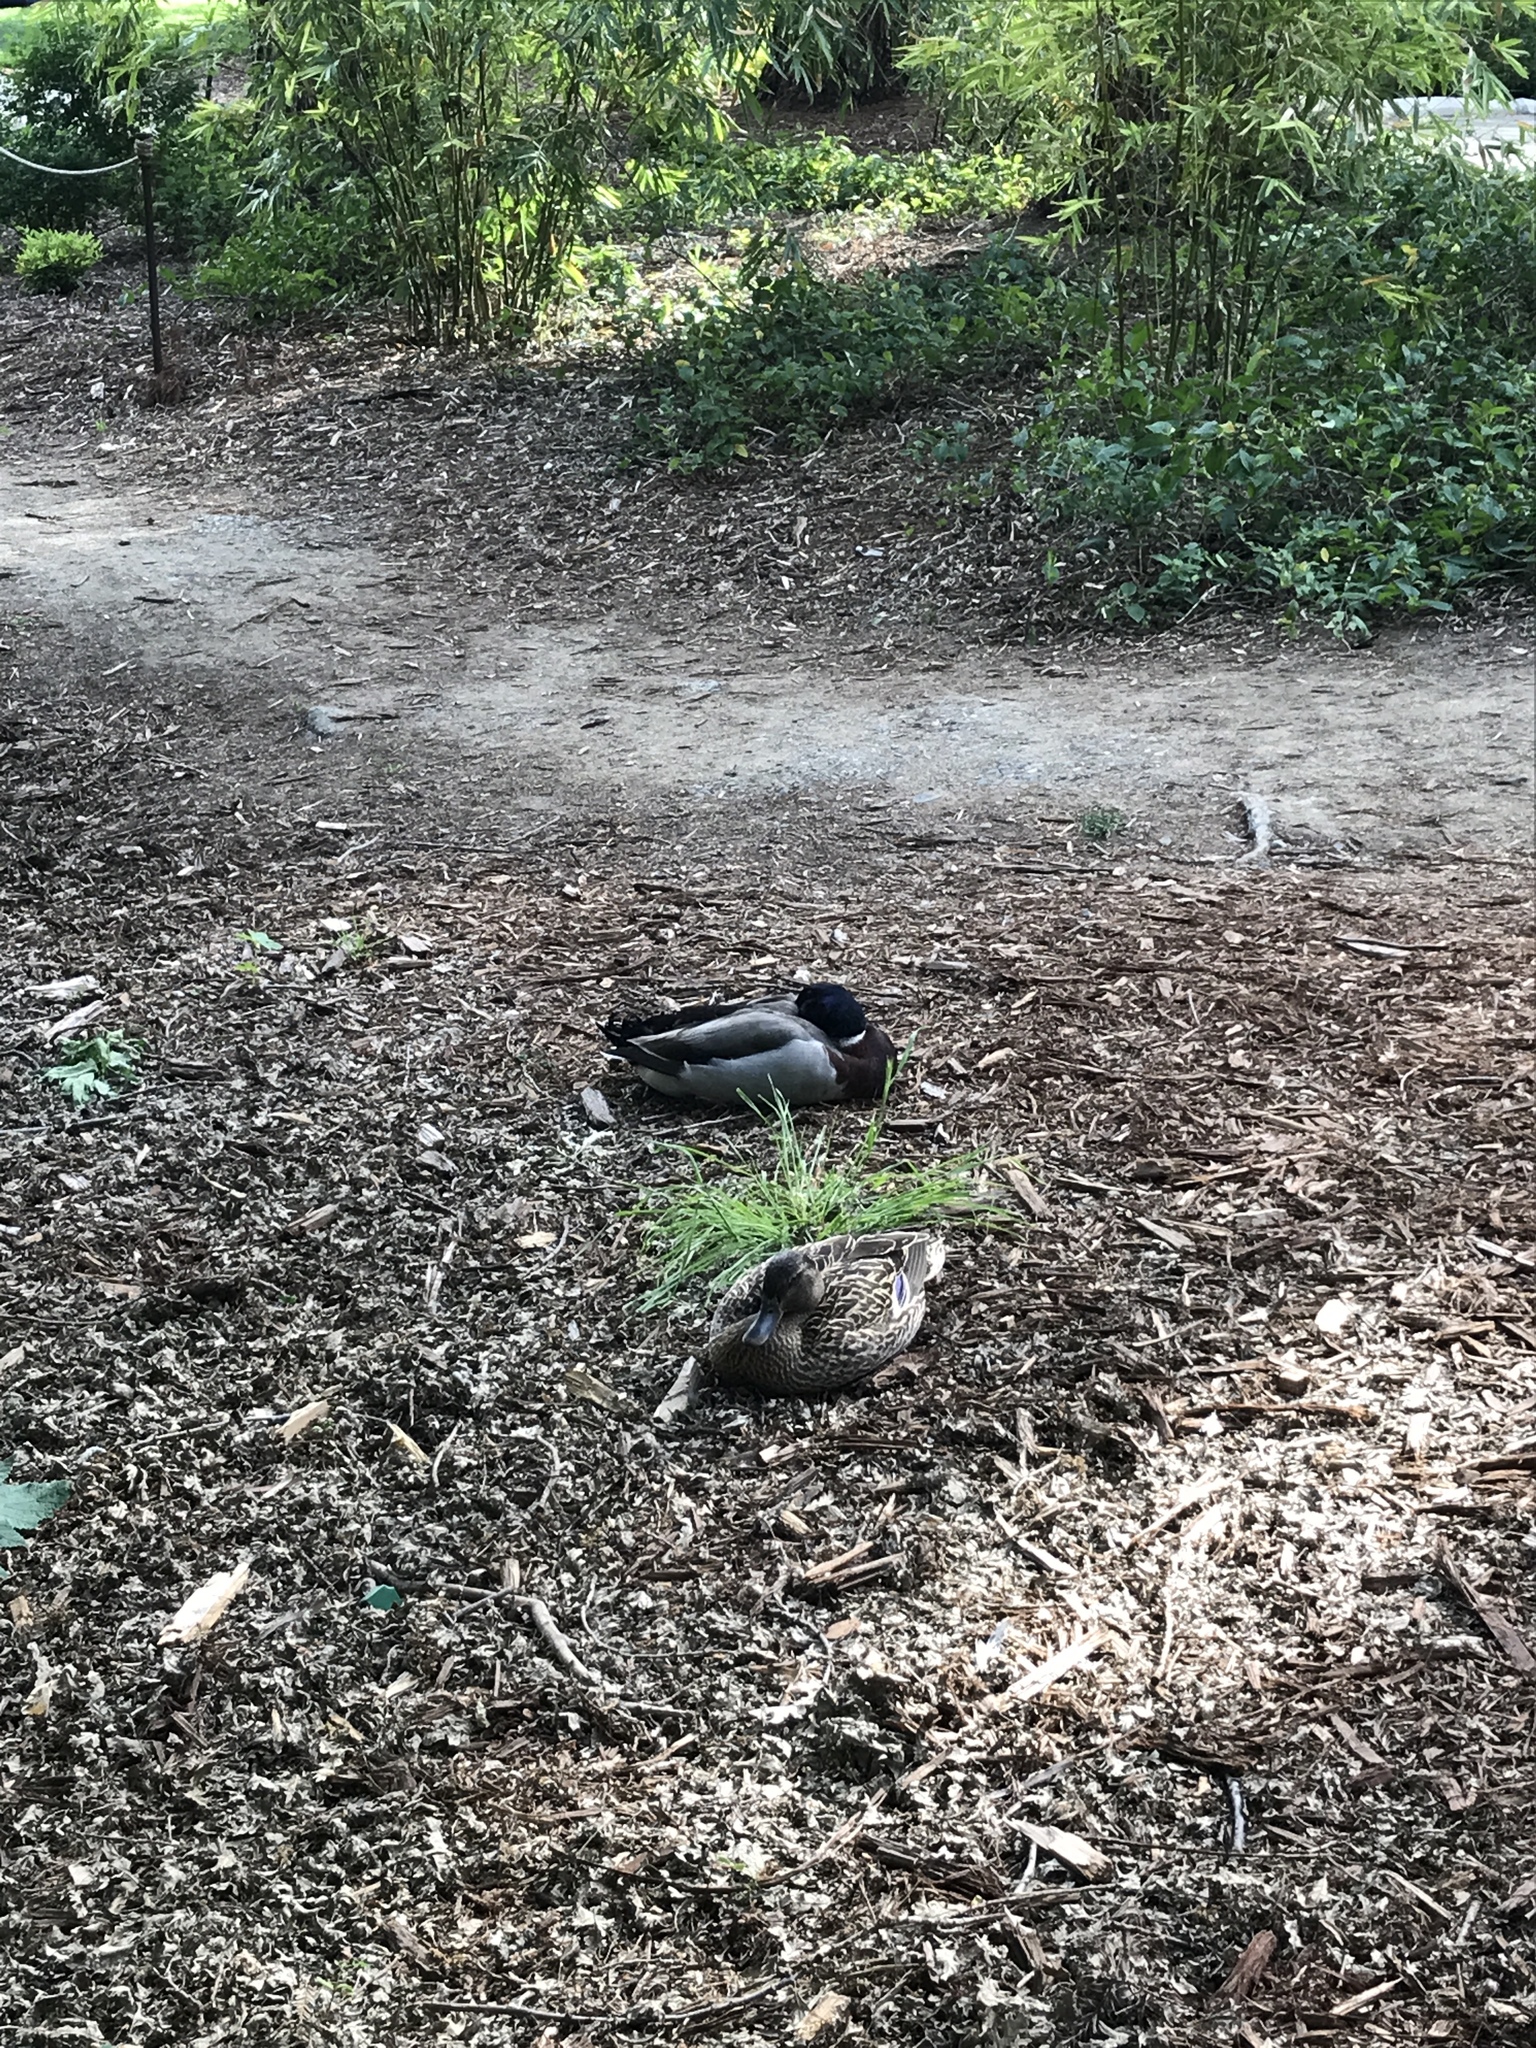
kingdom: Animalia
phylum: Chordata
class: Aves
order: Anseriformes
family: Anatidae
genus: Anas
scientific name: Anas platyrhynchos
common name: Mallard
